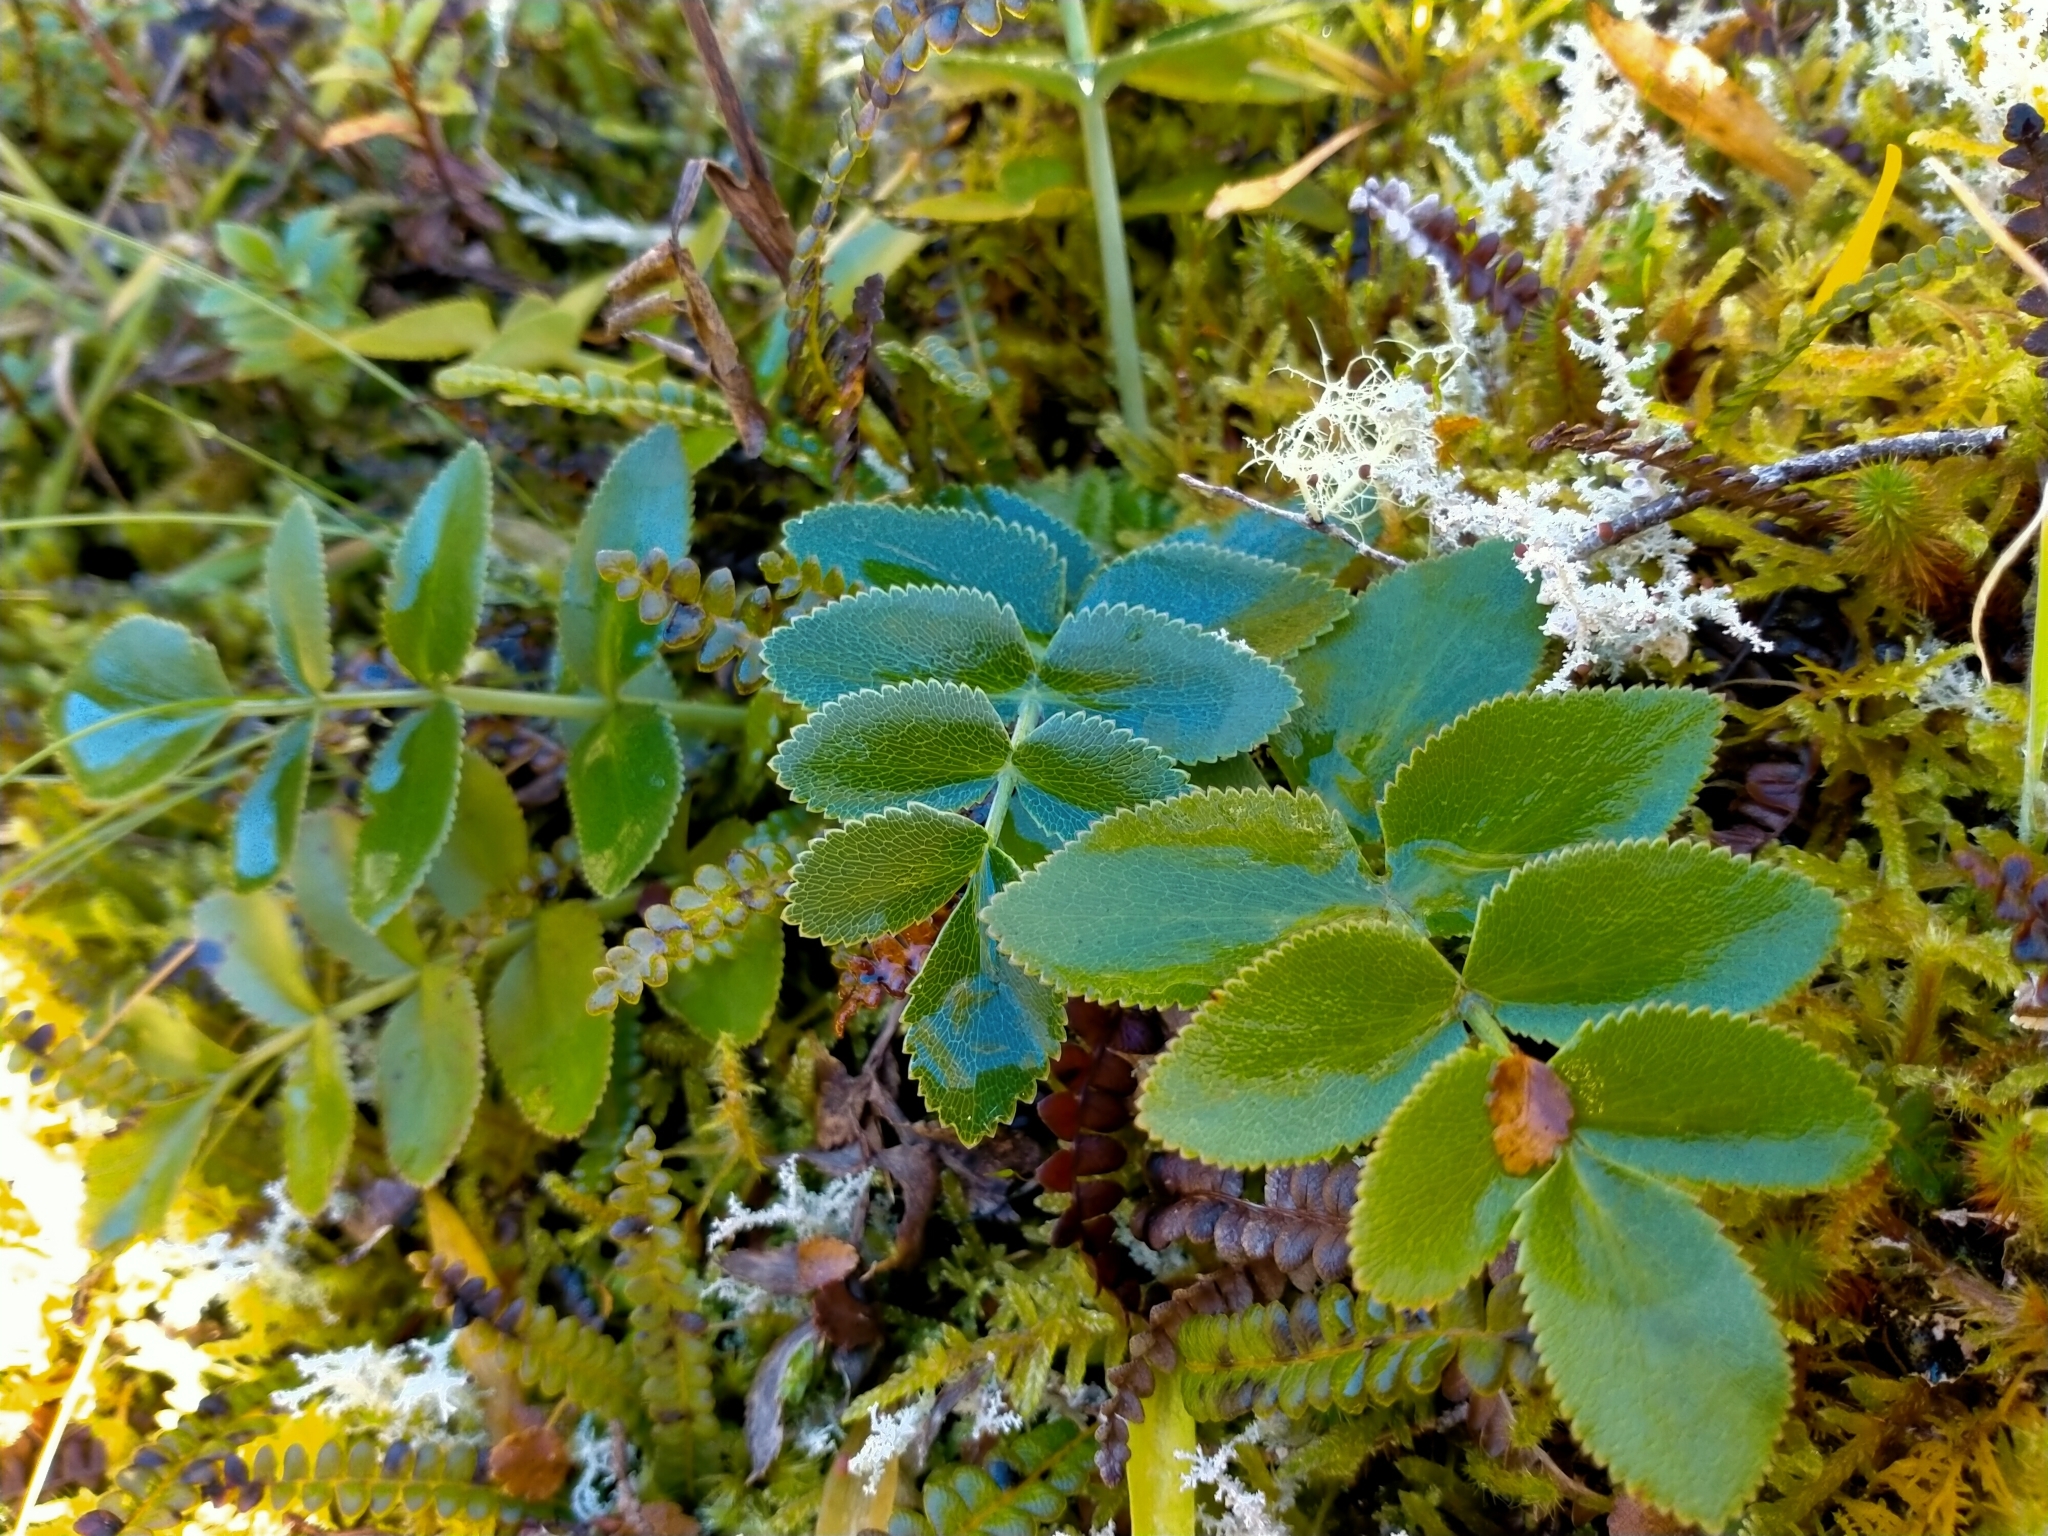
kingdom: Plantae
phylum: Tracheophyta
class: Magnoliopsida
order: Apiales
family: Apiaceae
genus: Gingidia
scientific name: Gingidia montana
